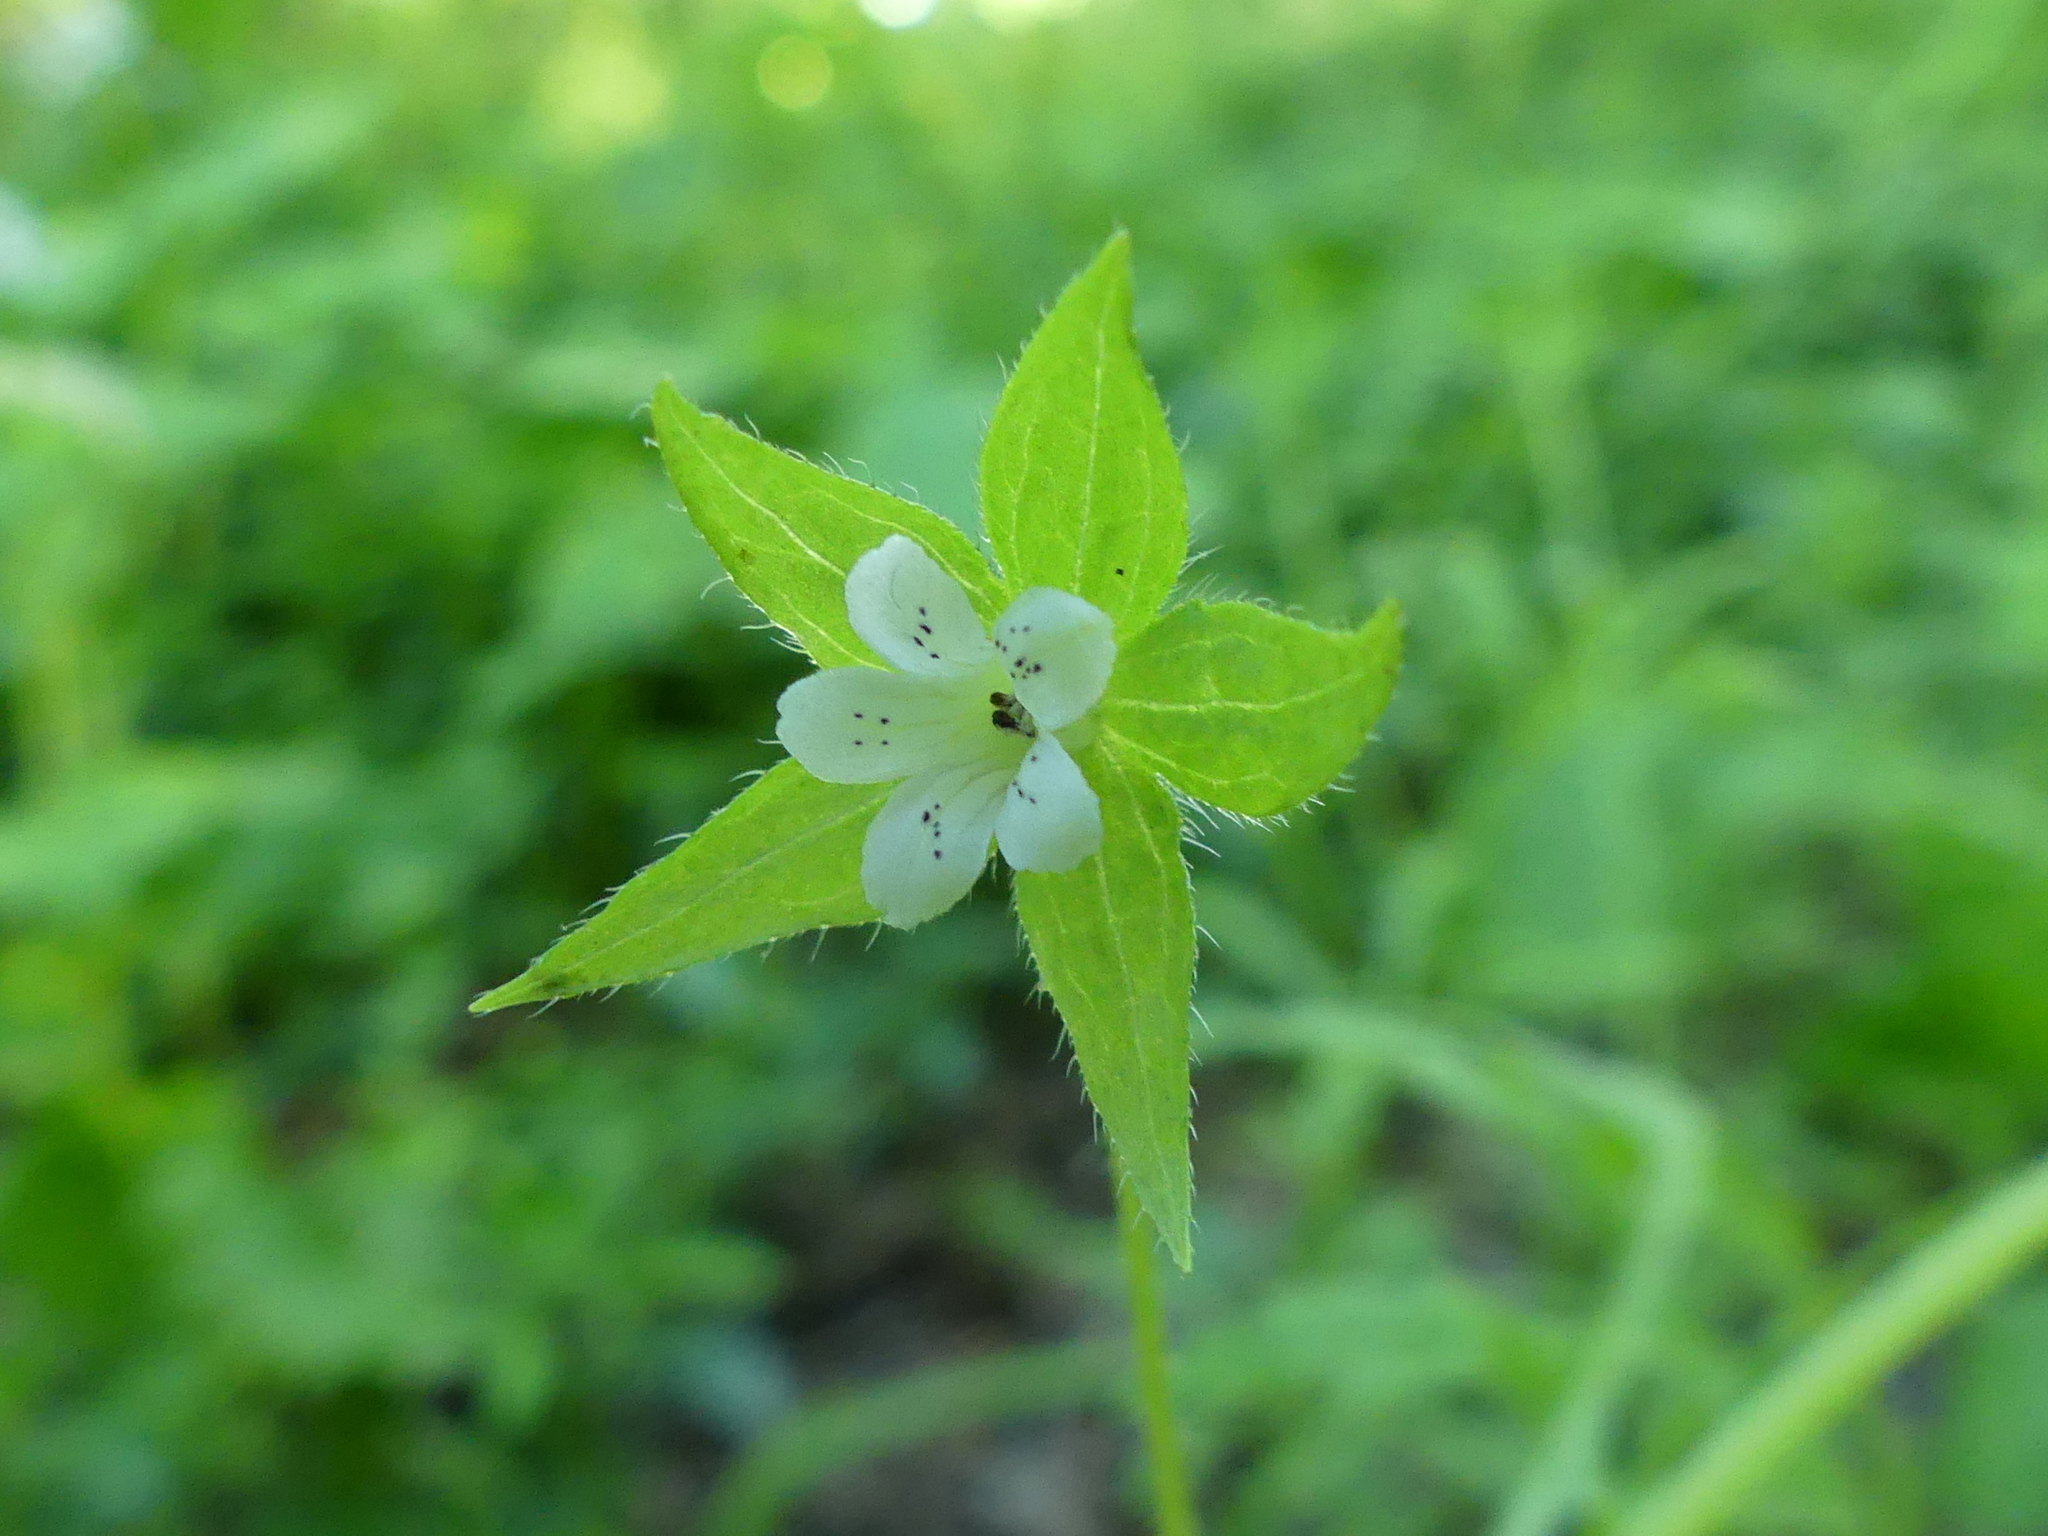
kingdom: Plantae
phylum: Tracheophyta
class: Magnoliopsida
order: Boraginales
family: Hydrophyllaceae
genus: Ellisia
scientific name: Ellisia nyctelea
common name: Aunt lucy
